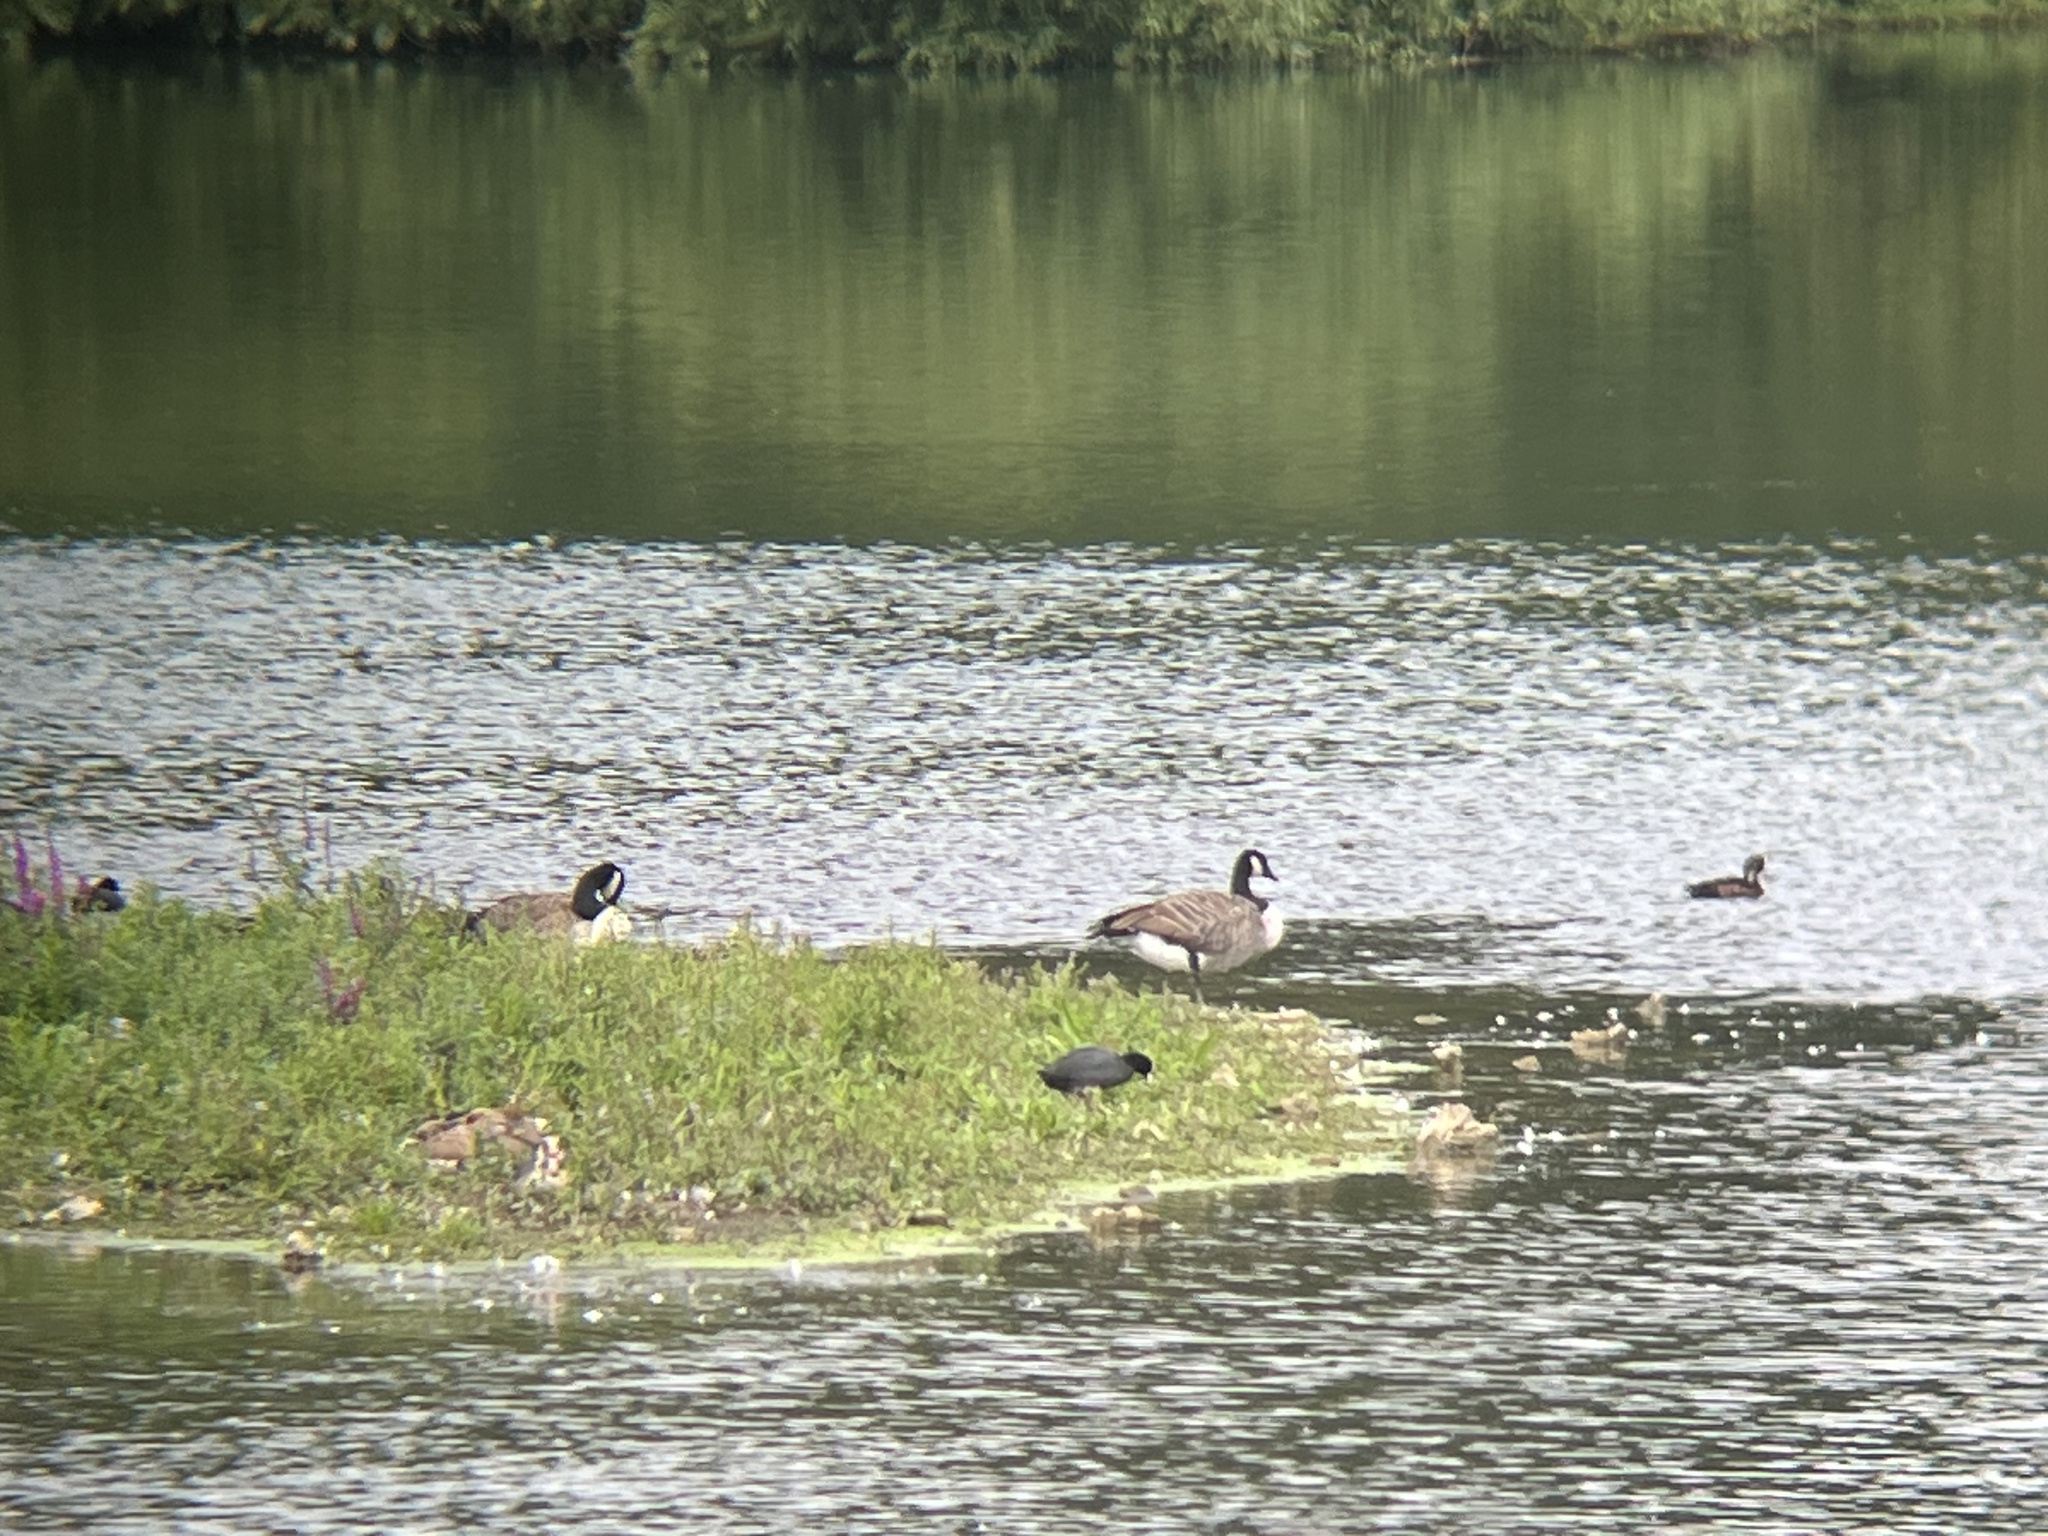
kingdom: Animalia
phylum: Chordata
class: Aves
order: Anseriformes
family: Anatidae
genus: Branta
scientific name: Branta canadensis
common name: Canada goose
